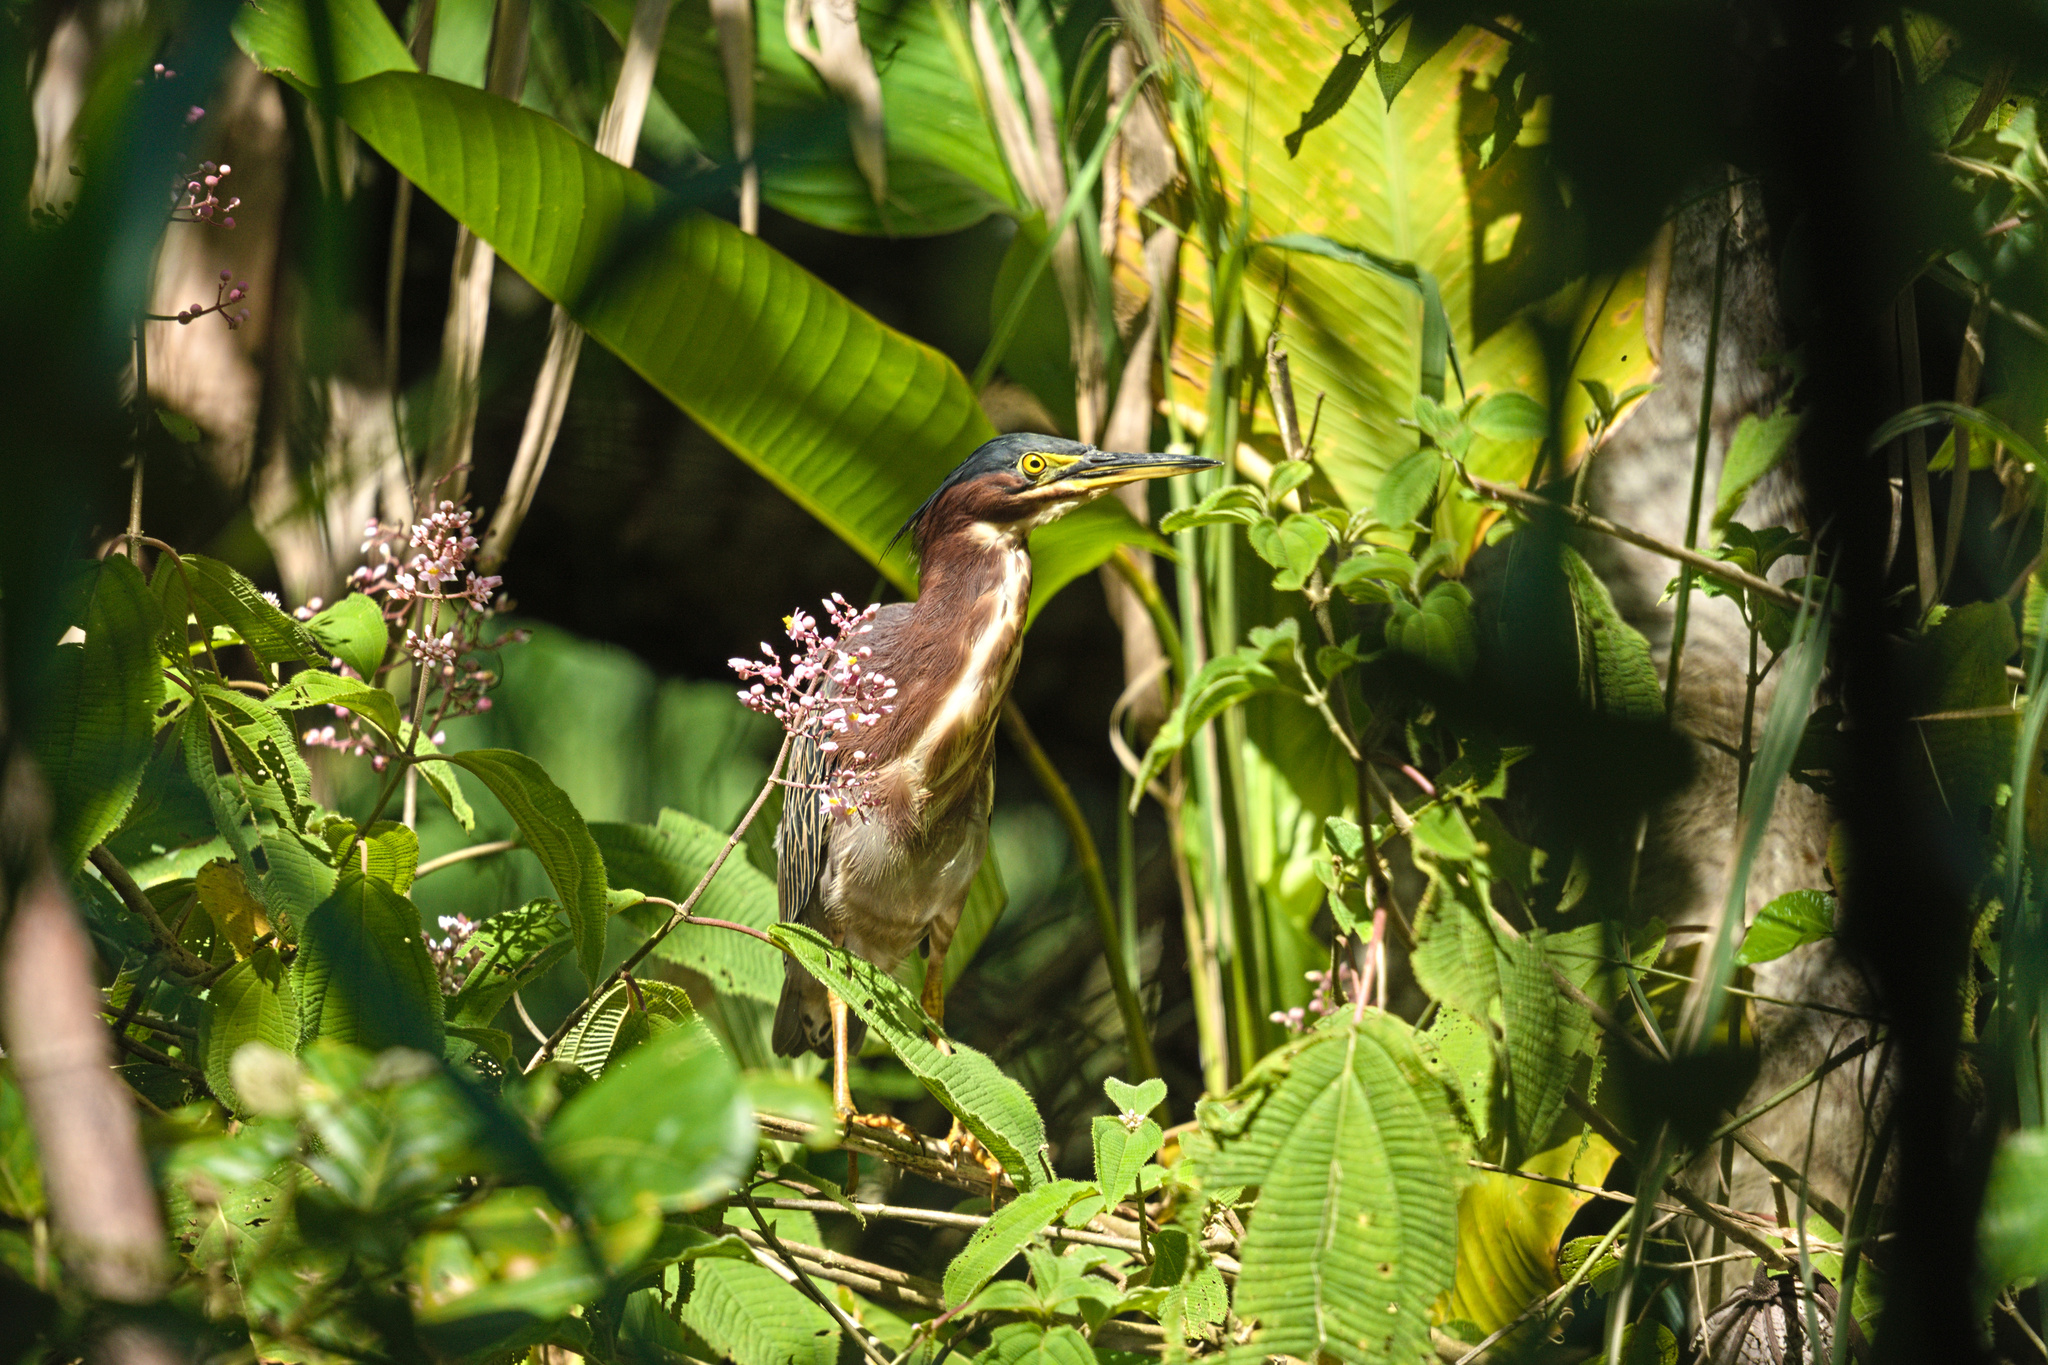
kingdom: Animalia
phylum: Chordata
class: Aves
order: Pelecaniformes
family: Ardeidae
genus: Butorides
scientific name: Butorides virescens
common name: Green heron
